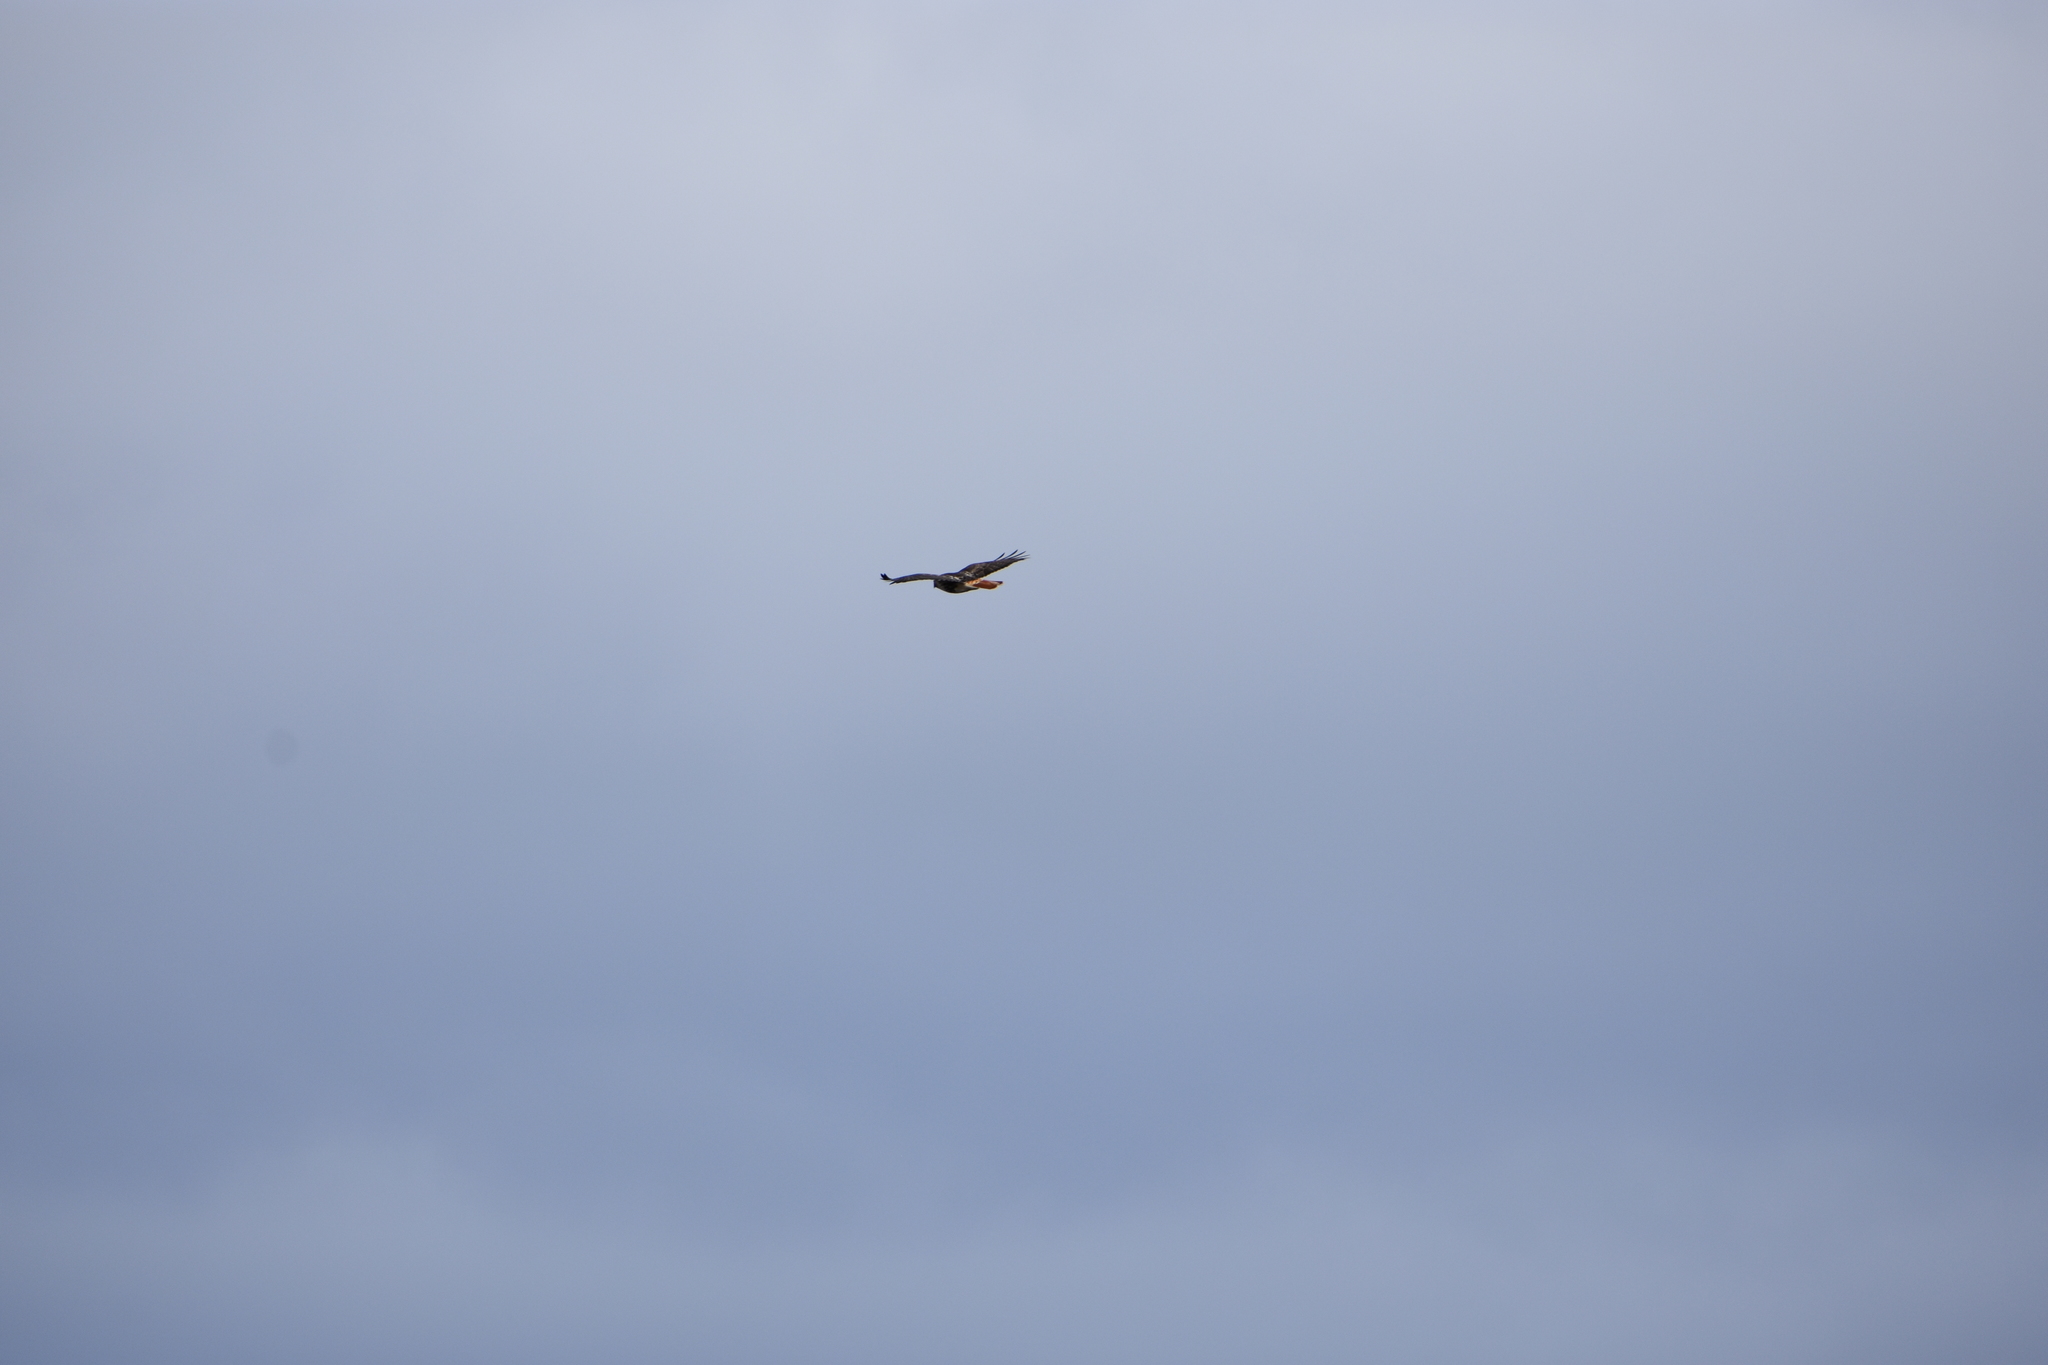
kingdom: Animalia
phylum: Chordata
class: Aves
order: Accipitriformes
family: Accipitridae
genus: Buteo
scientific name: Buteo jamaicensis
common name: Red-tailed hawk
